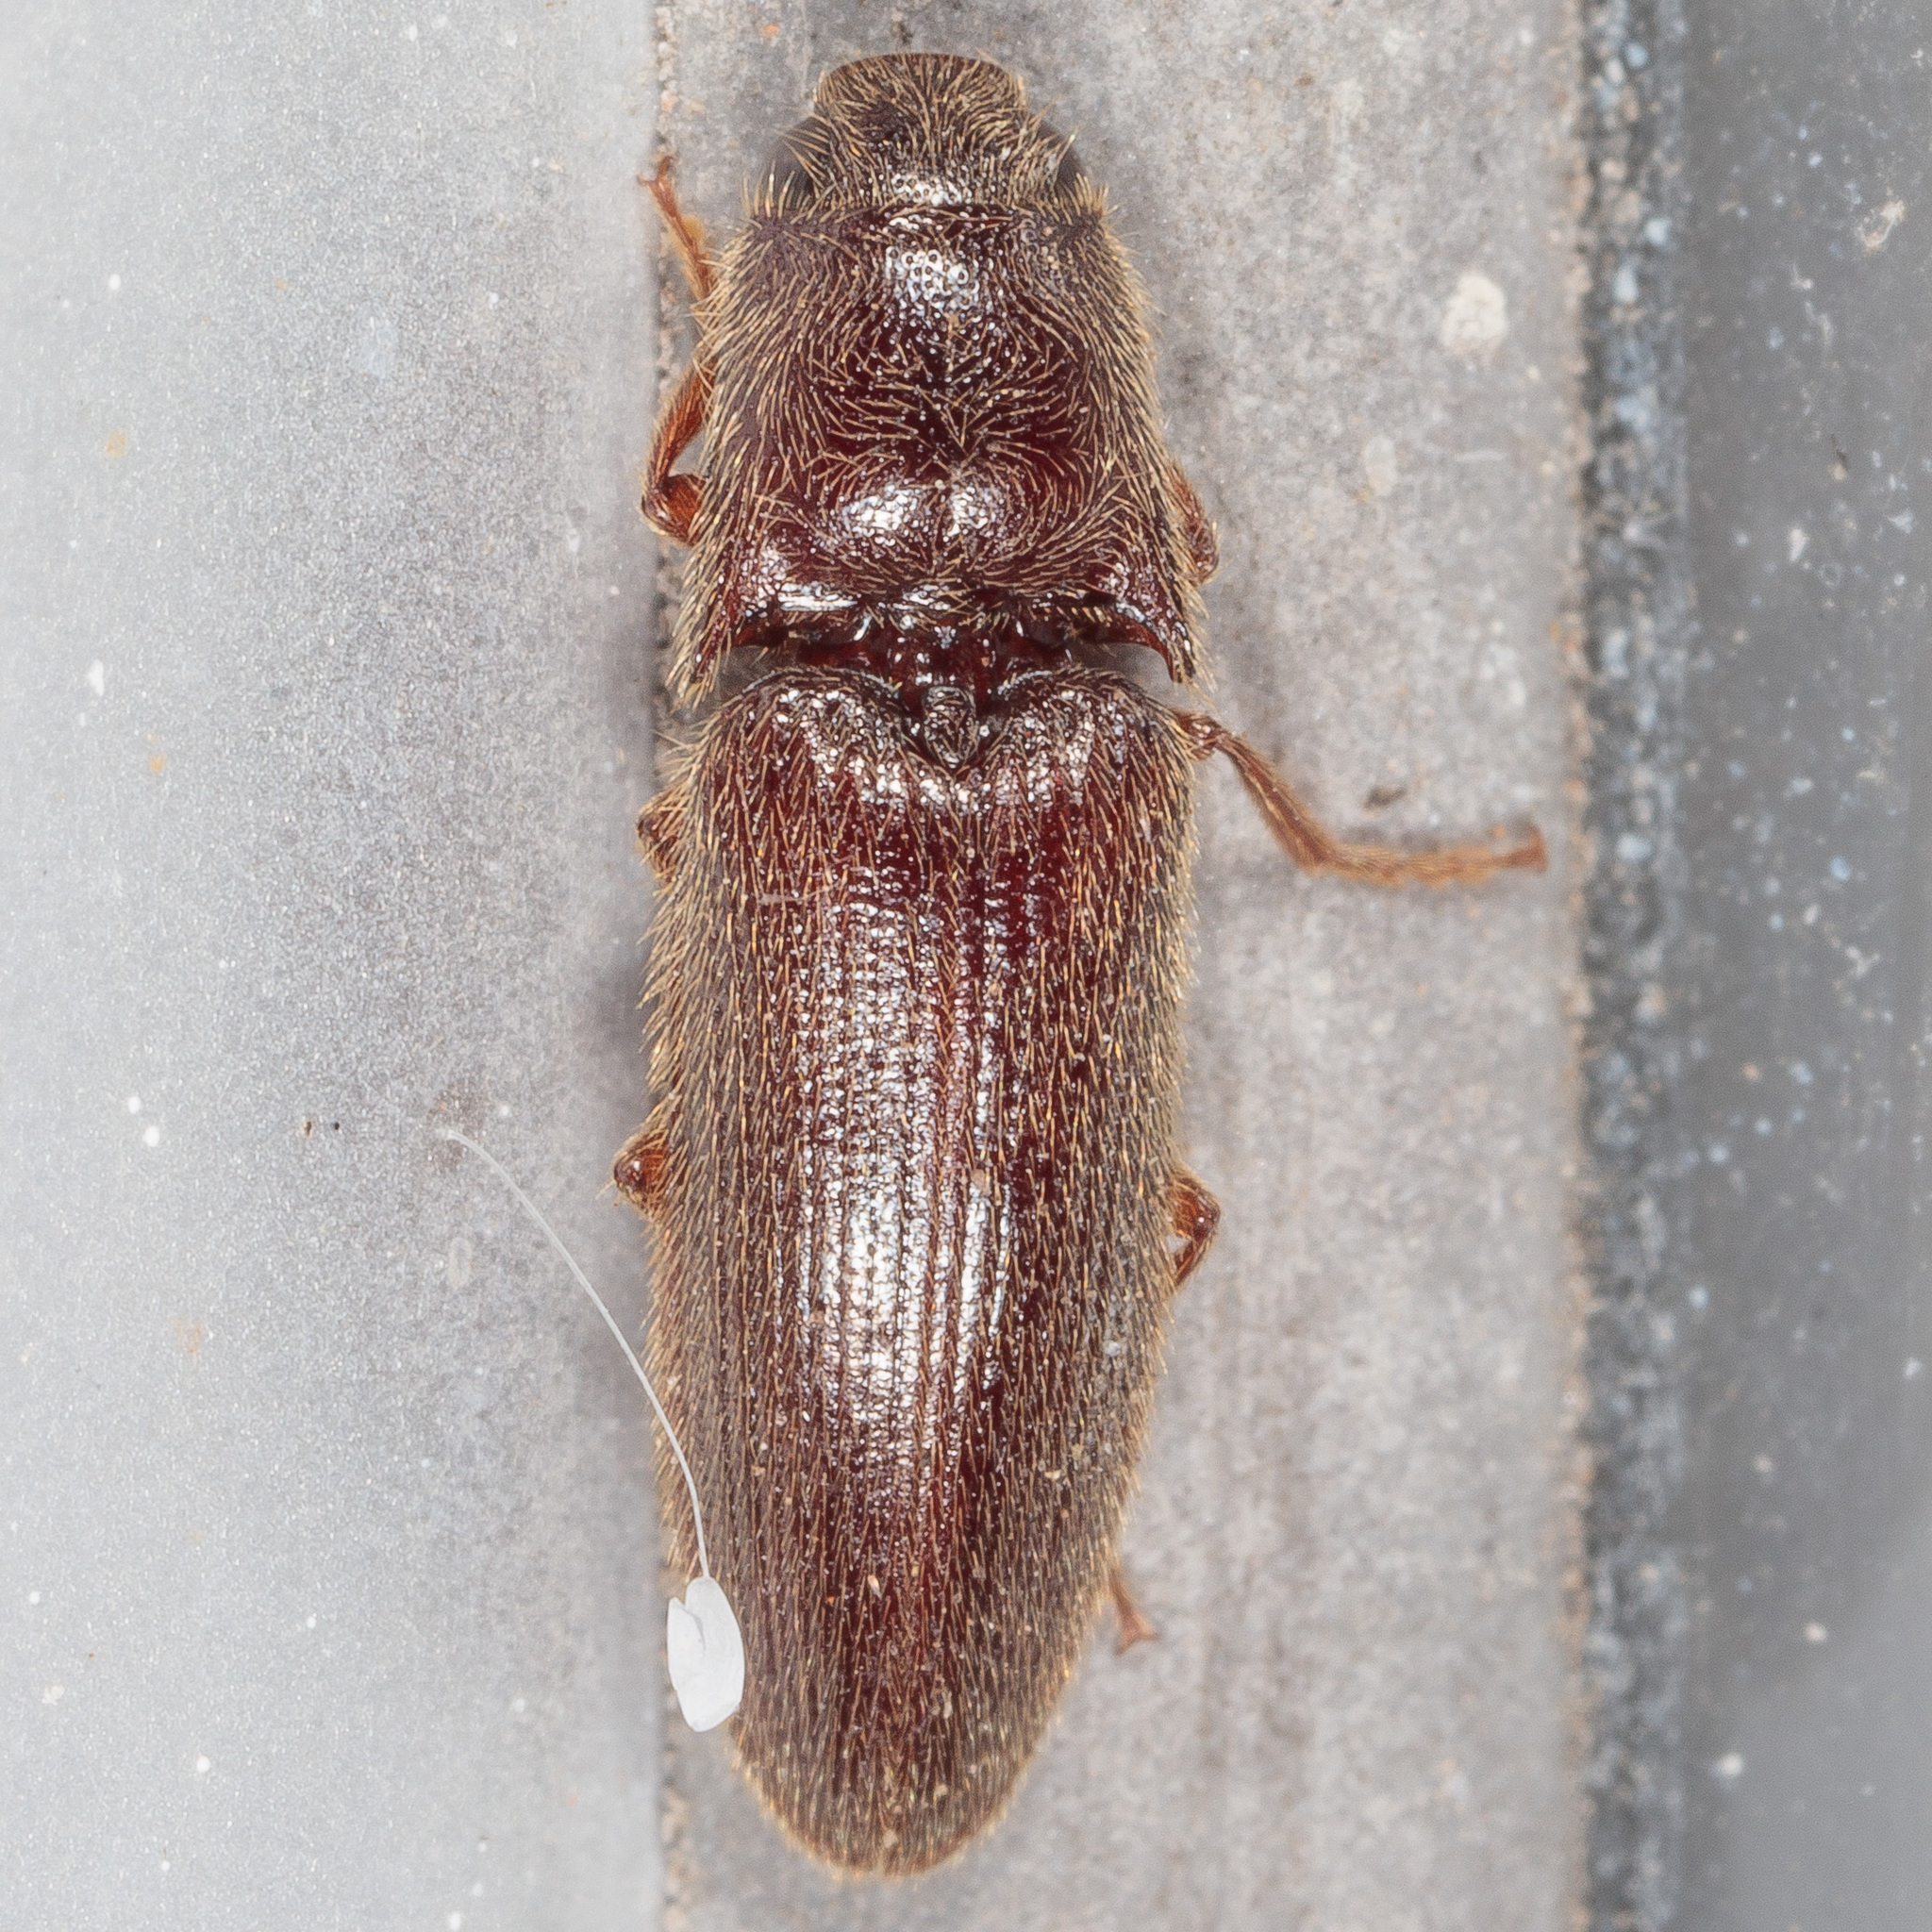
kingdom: Animalia
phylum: Arthropoda
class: Insecta
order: Coleoptera
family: Elateridae
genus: Dipropus
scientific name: Dipropus
